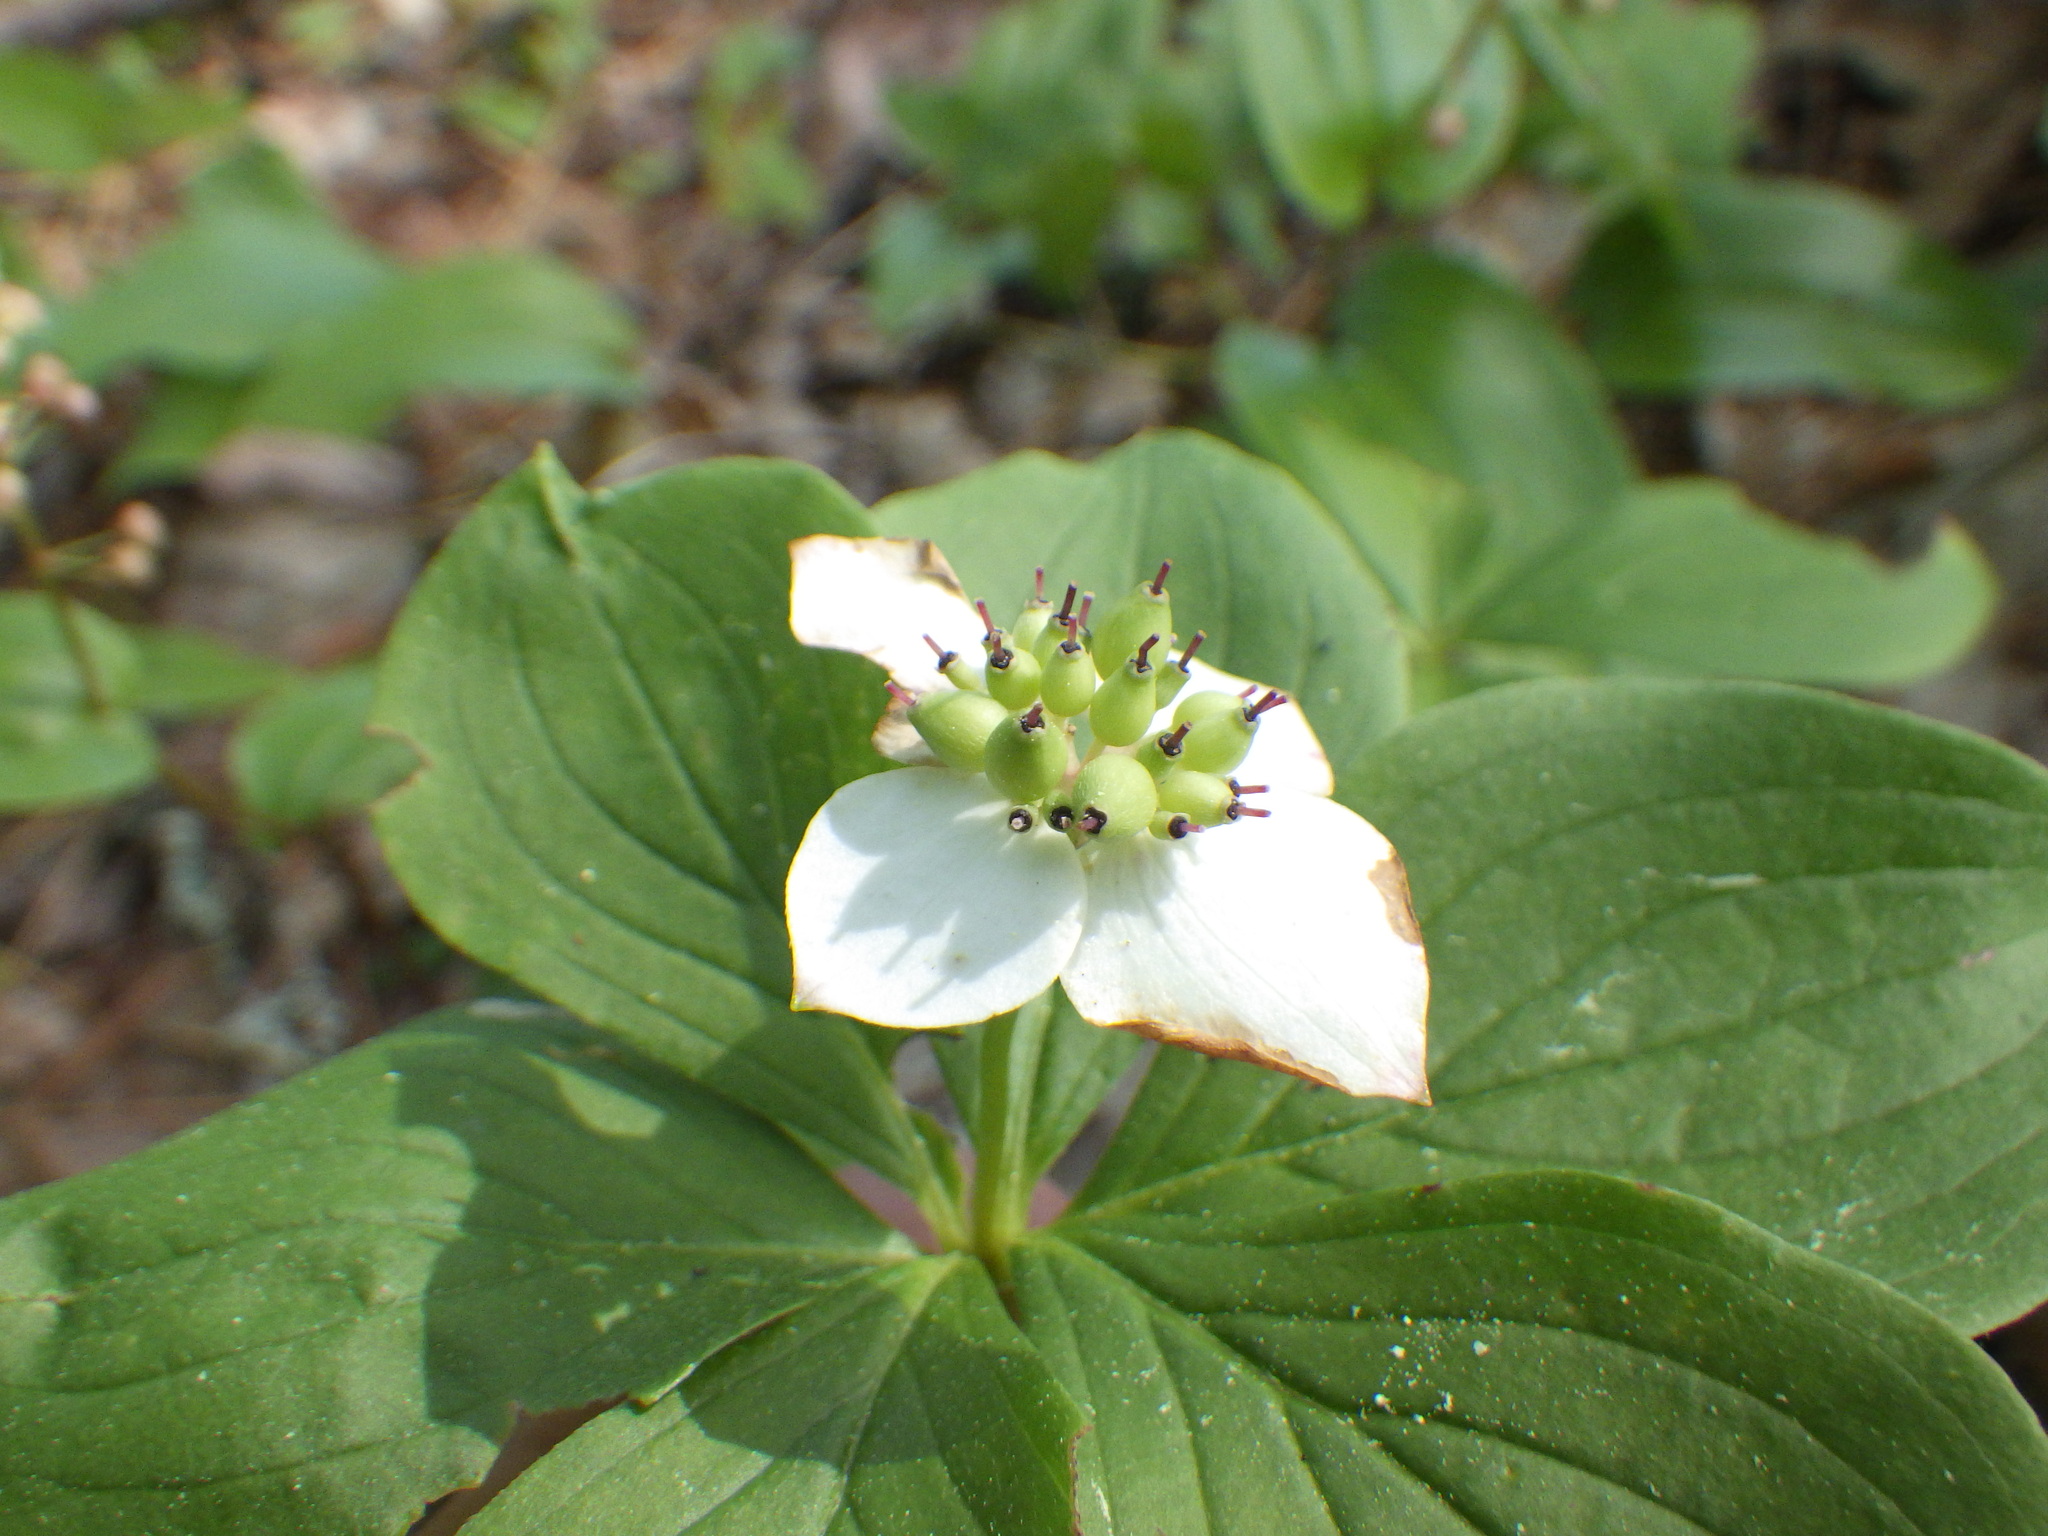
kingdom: Plantae
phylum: Tracheophyta
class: Magnoliopsida
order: Cornales
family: Cornaceae
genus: Cornus
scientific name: Cornus canadensis
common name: Creeping dogwood
